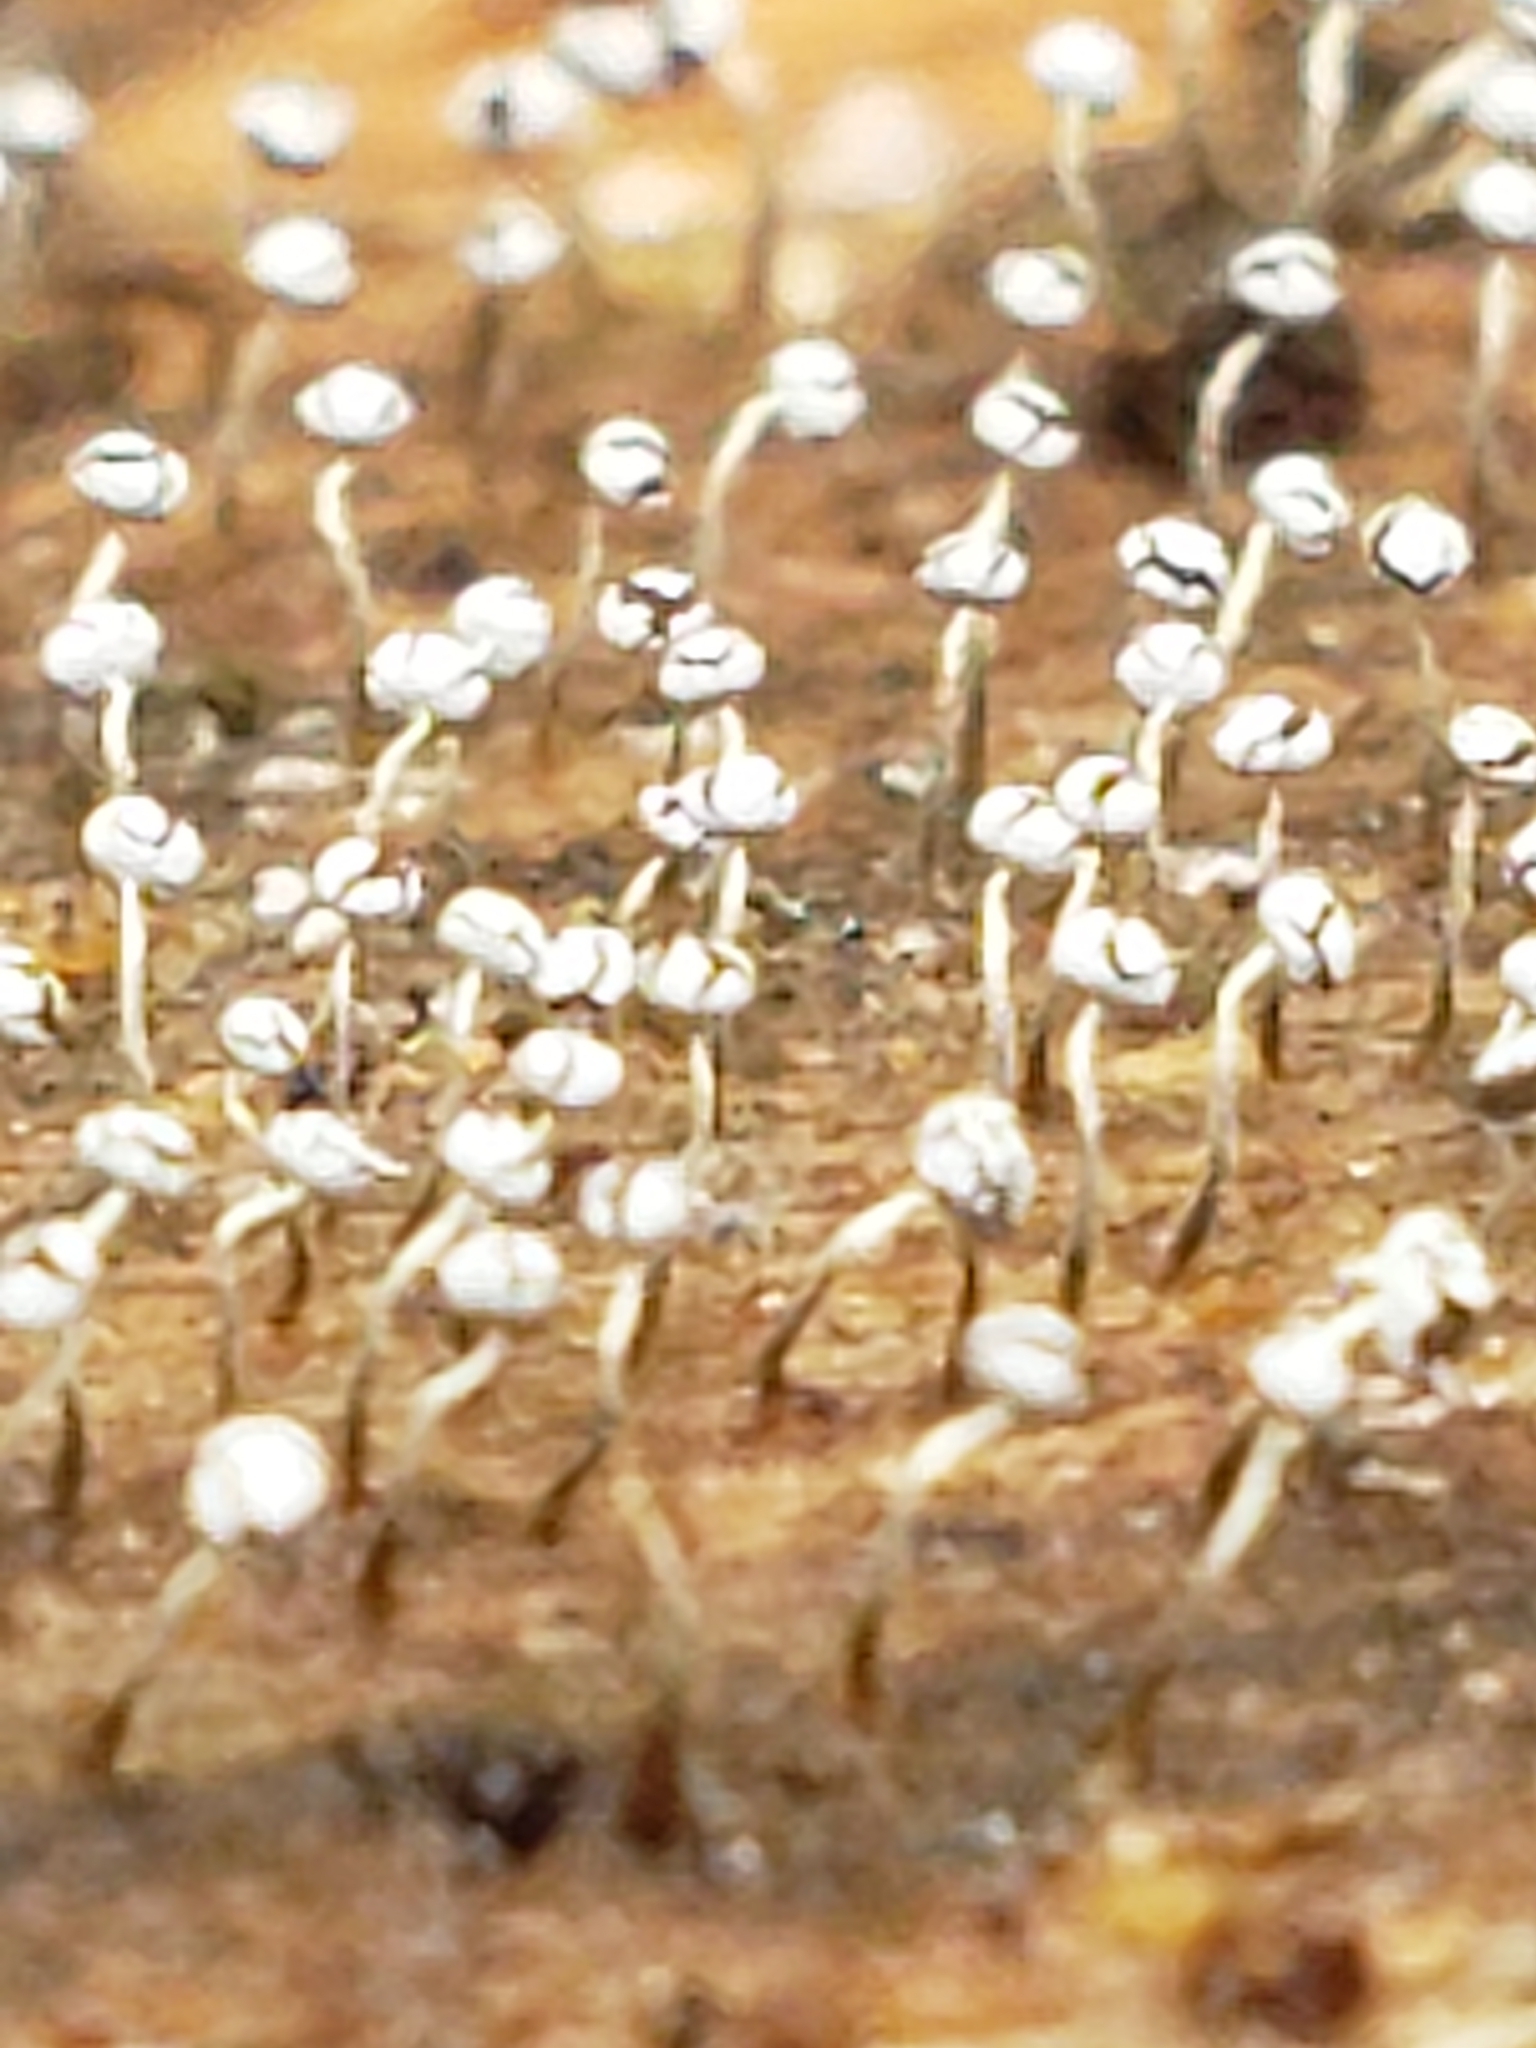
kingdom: Protozoa
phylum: Mycetozoa
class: Myxomycetes
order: Physarales
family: Physaraceae
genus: Physarum
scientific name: Physarum album
